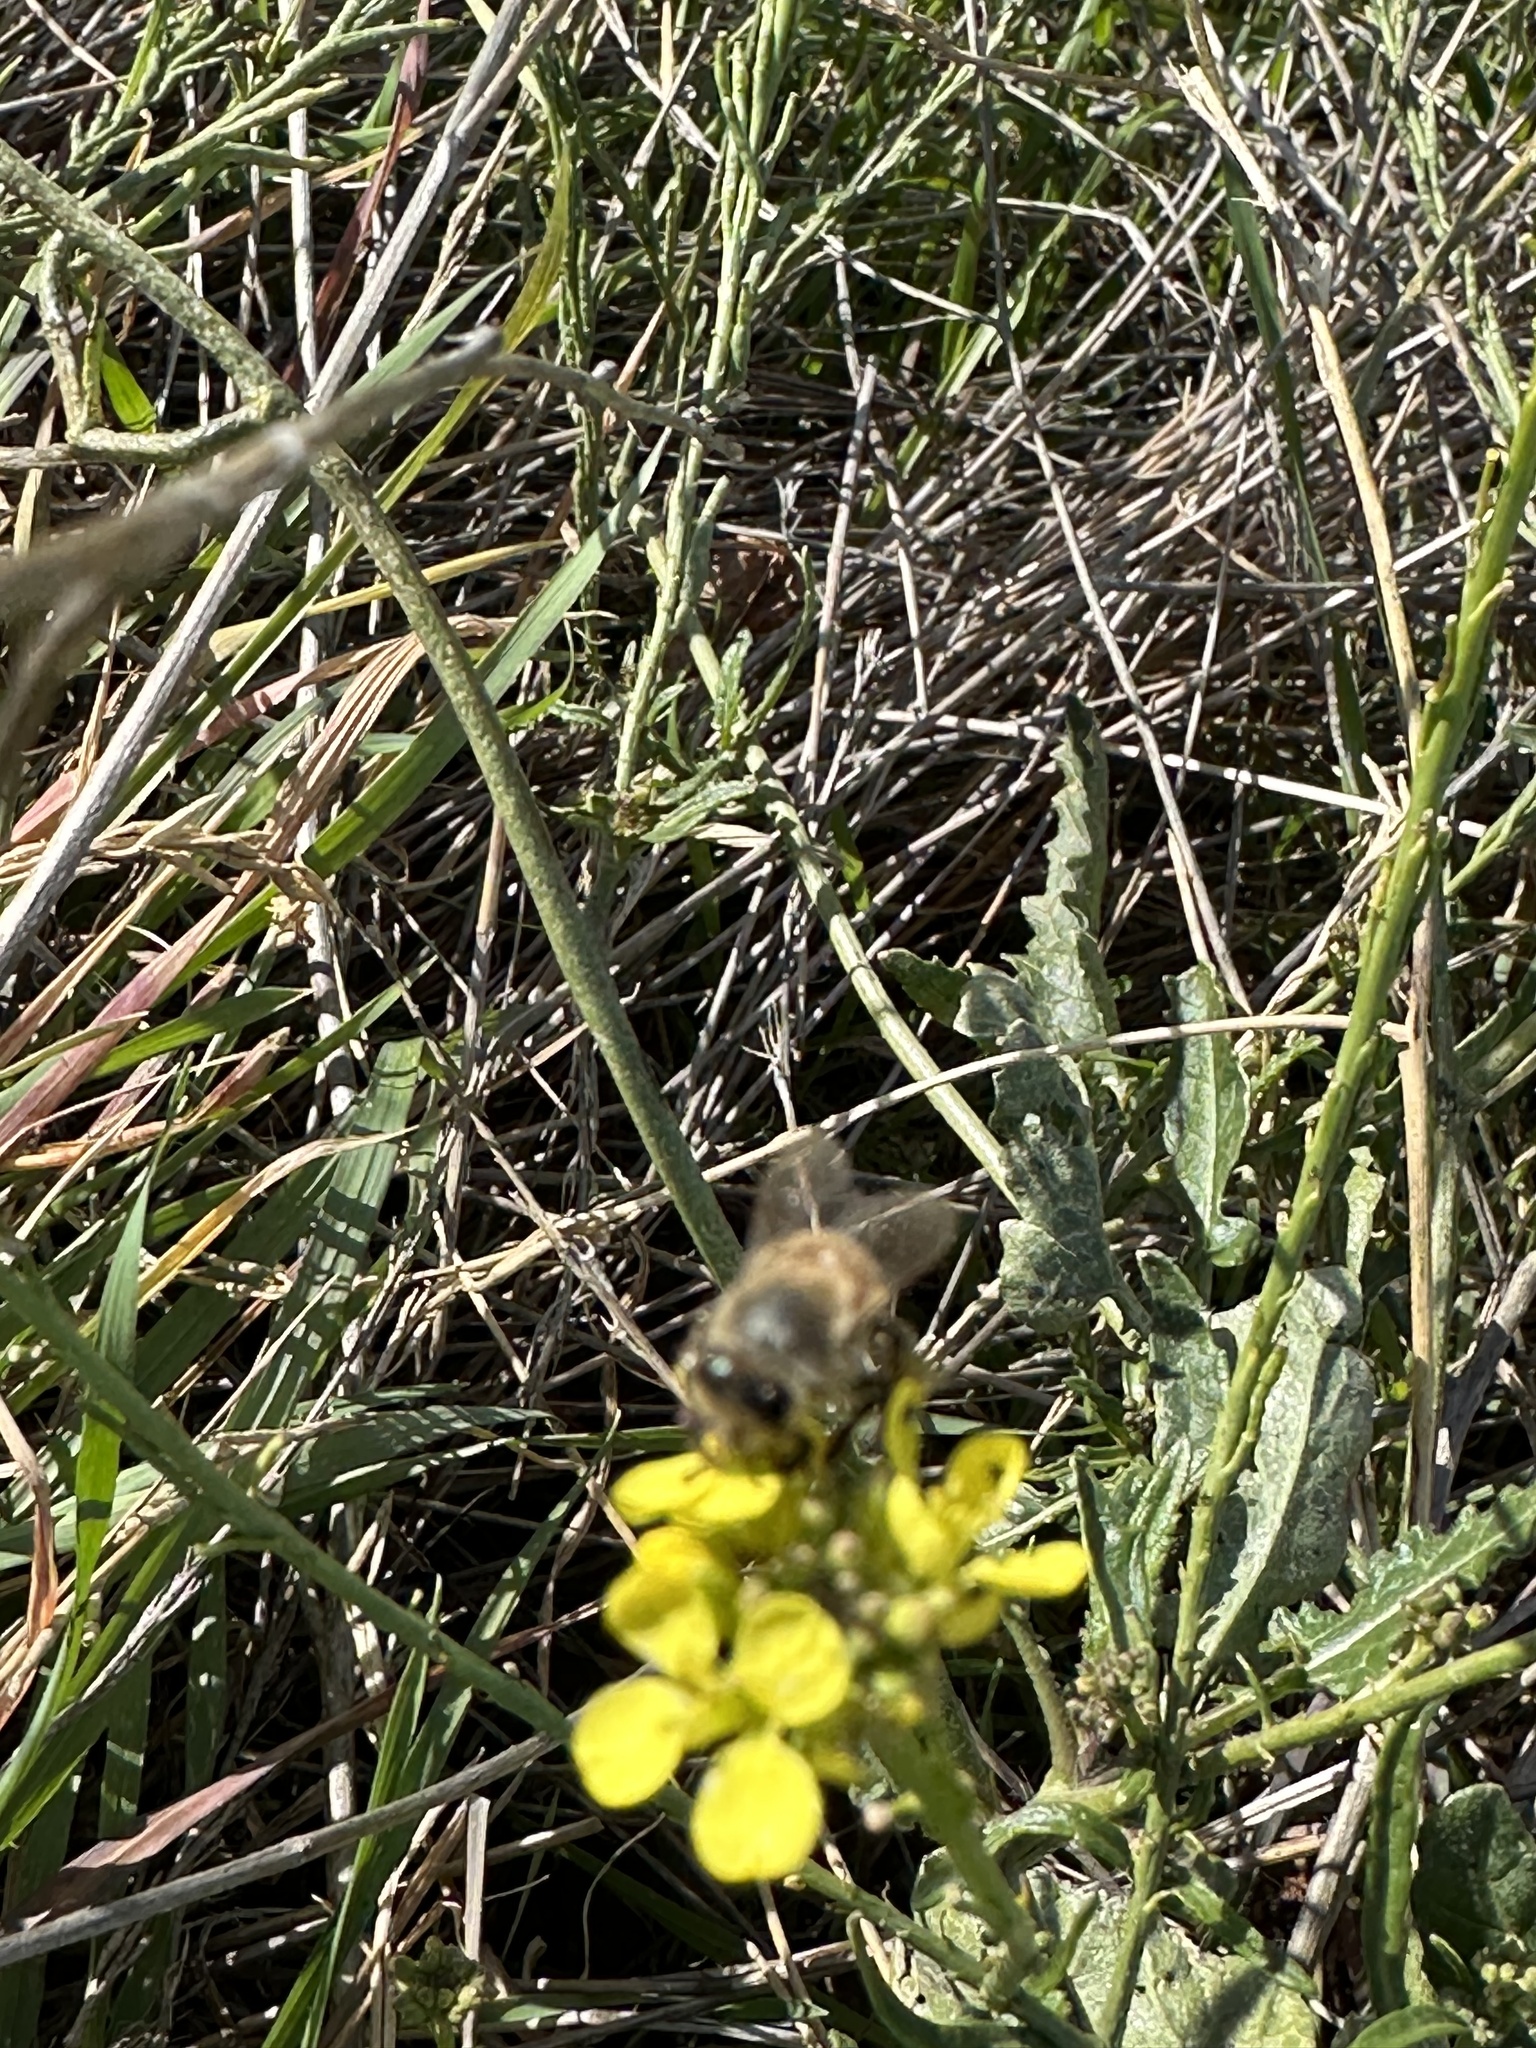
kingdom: Animalia
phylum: Arthropoda
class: Insecta
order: Hymenoptera
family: Apidae
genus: Apis
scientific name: Apis mellifera
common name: Honey bee
